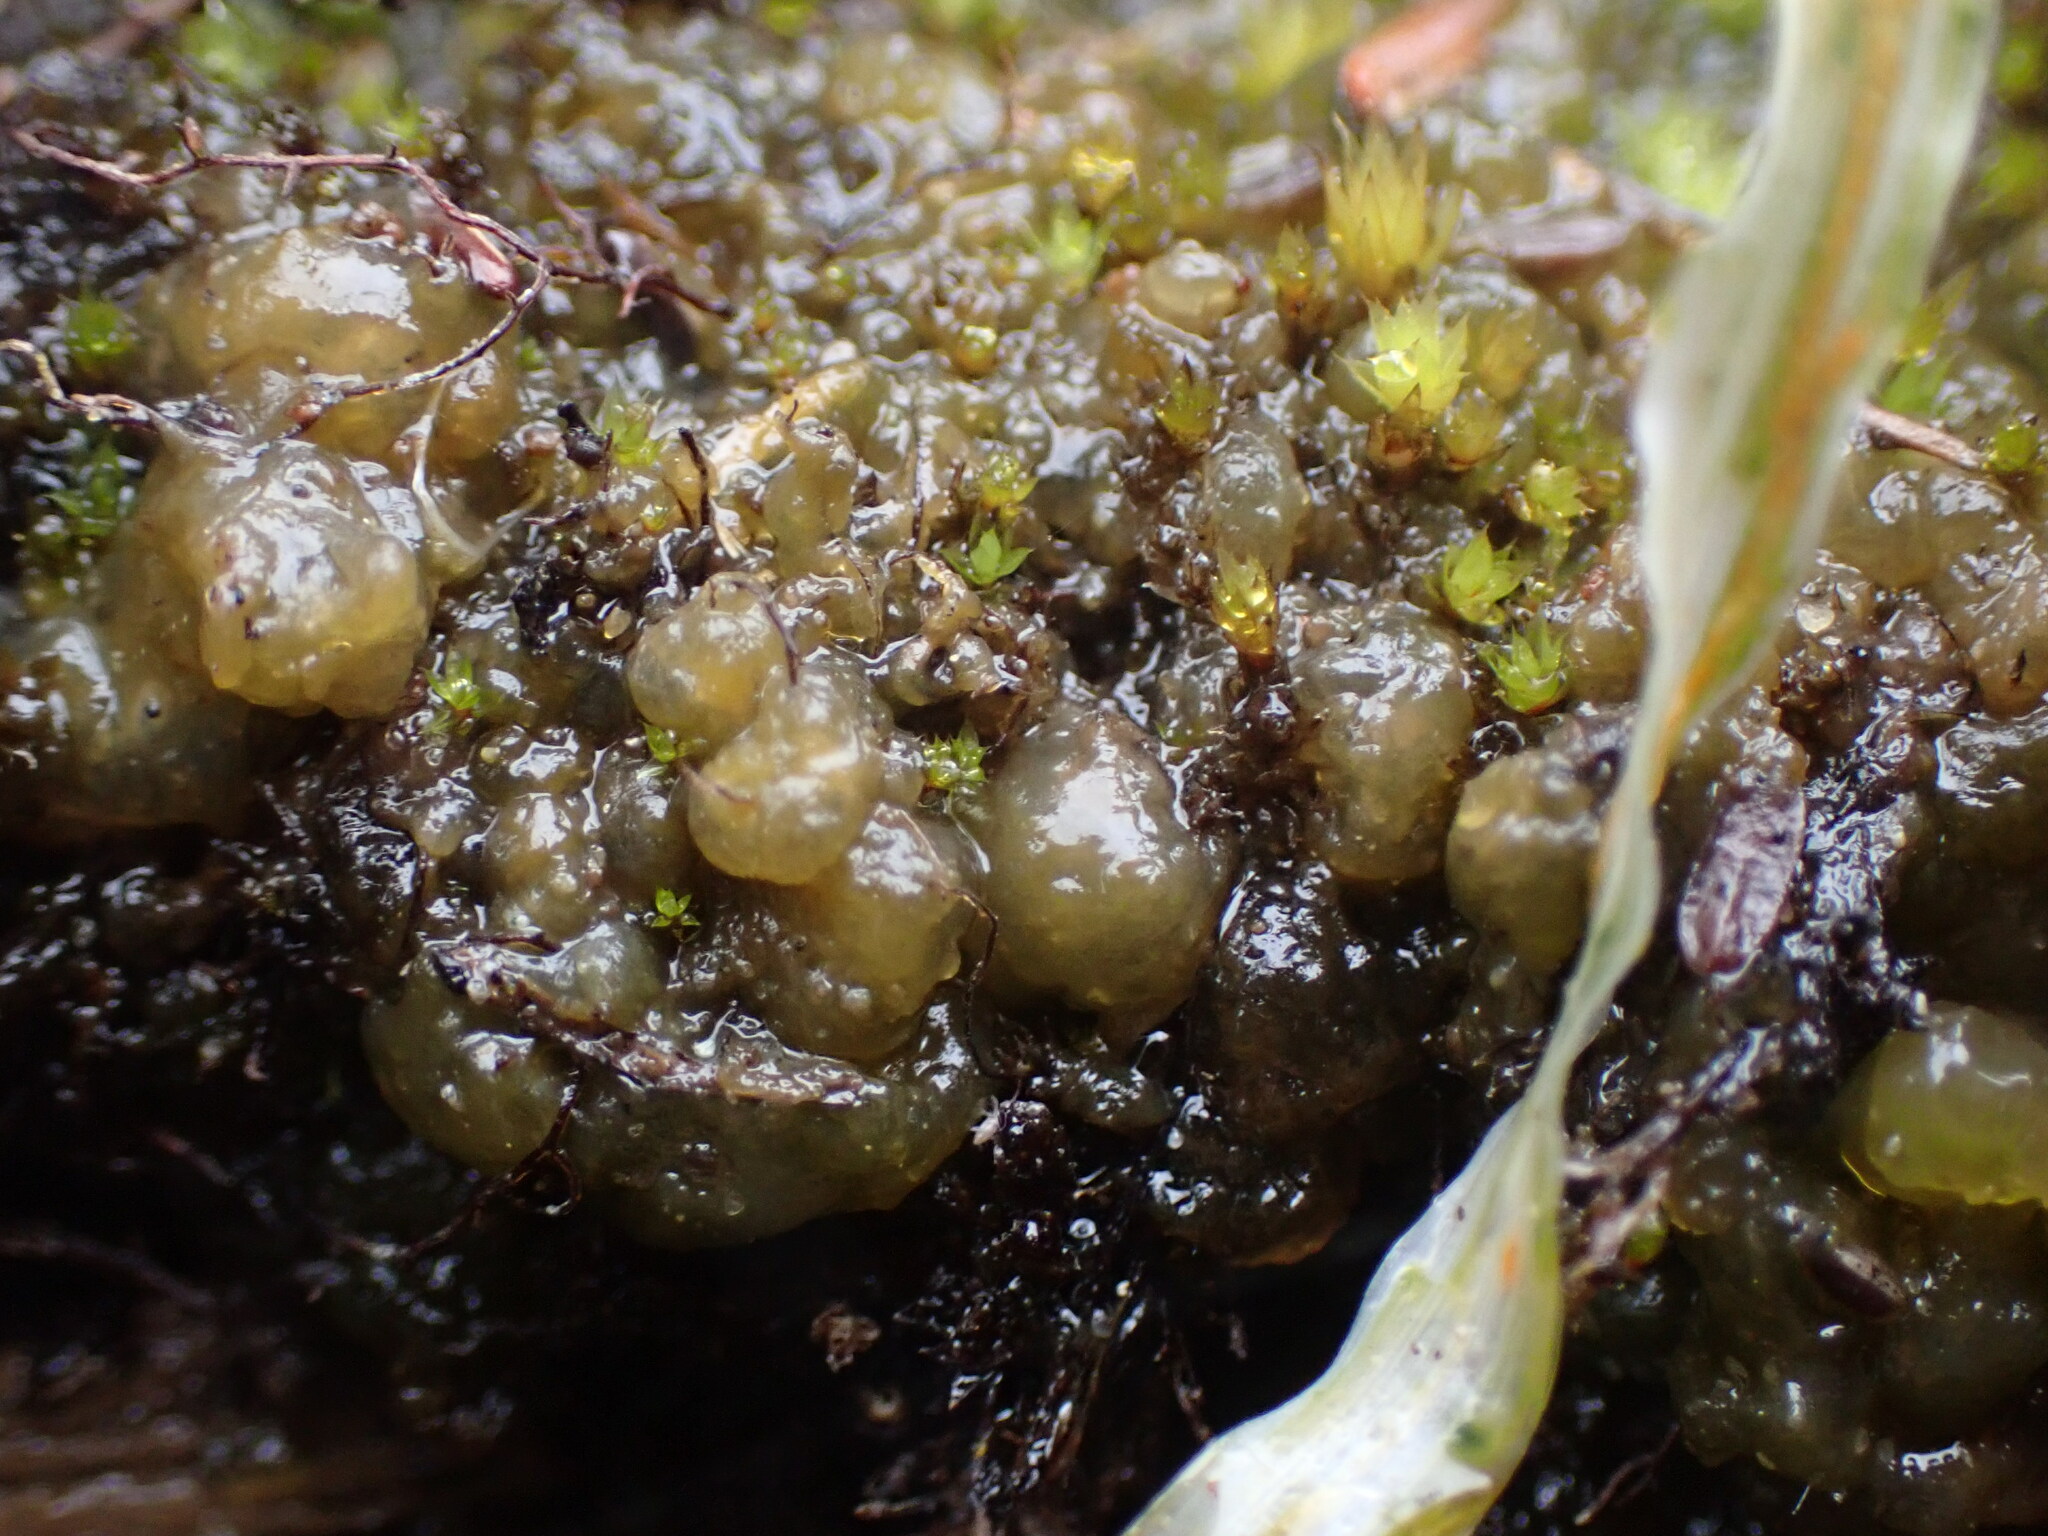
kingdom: Bacteria
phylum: Cyanobacteria
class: Cyanobacteriia
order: Cyanobacteriales
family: Nostocaceae
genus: Nostoc
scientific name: Nostoc
